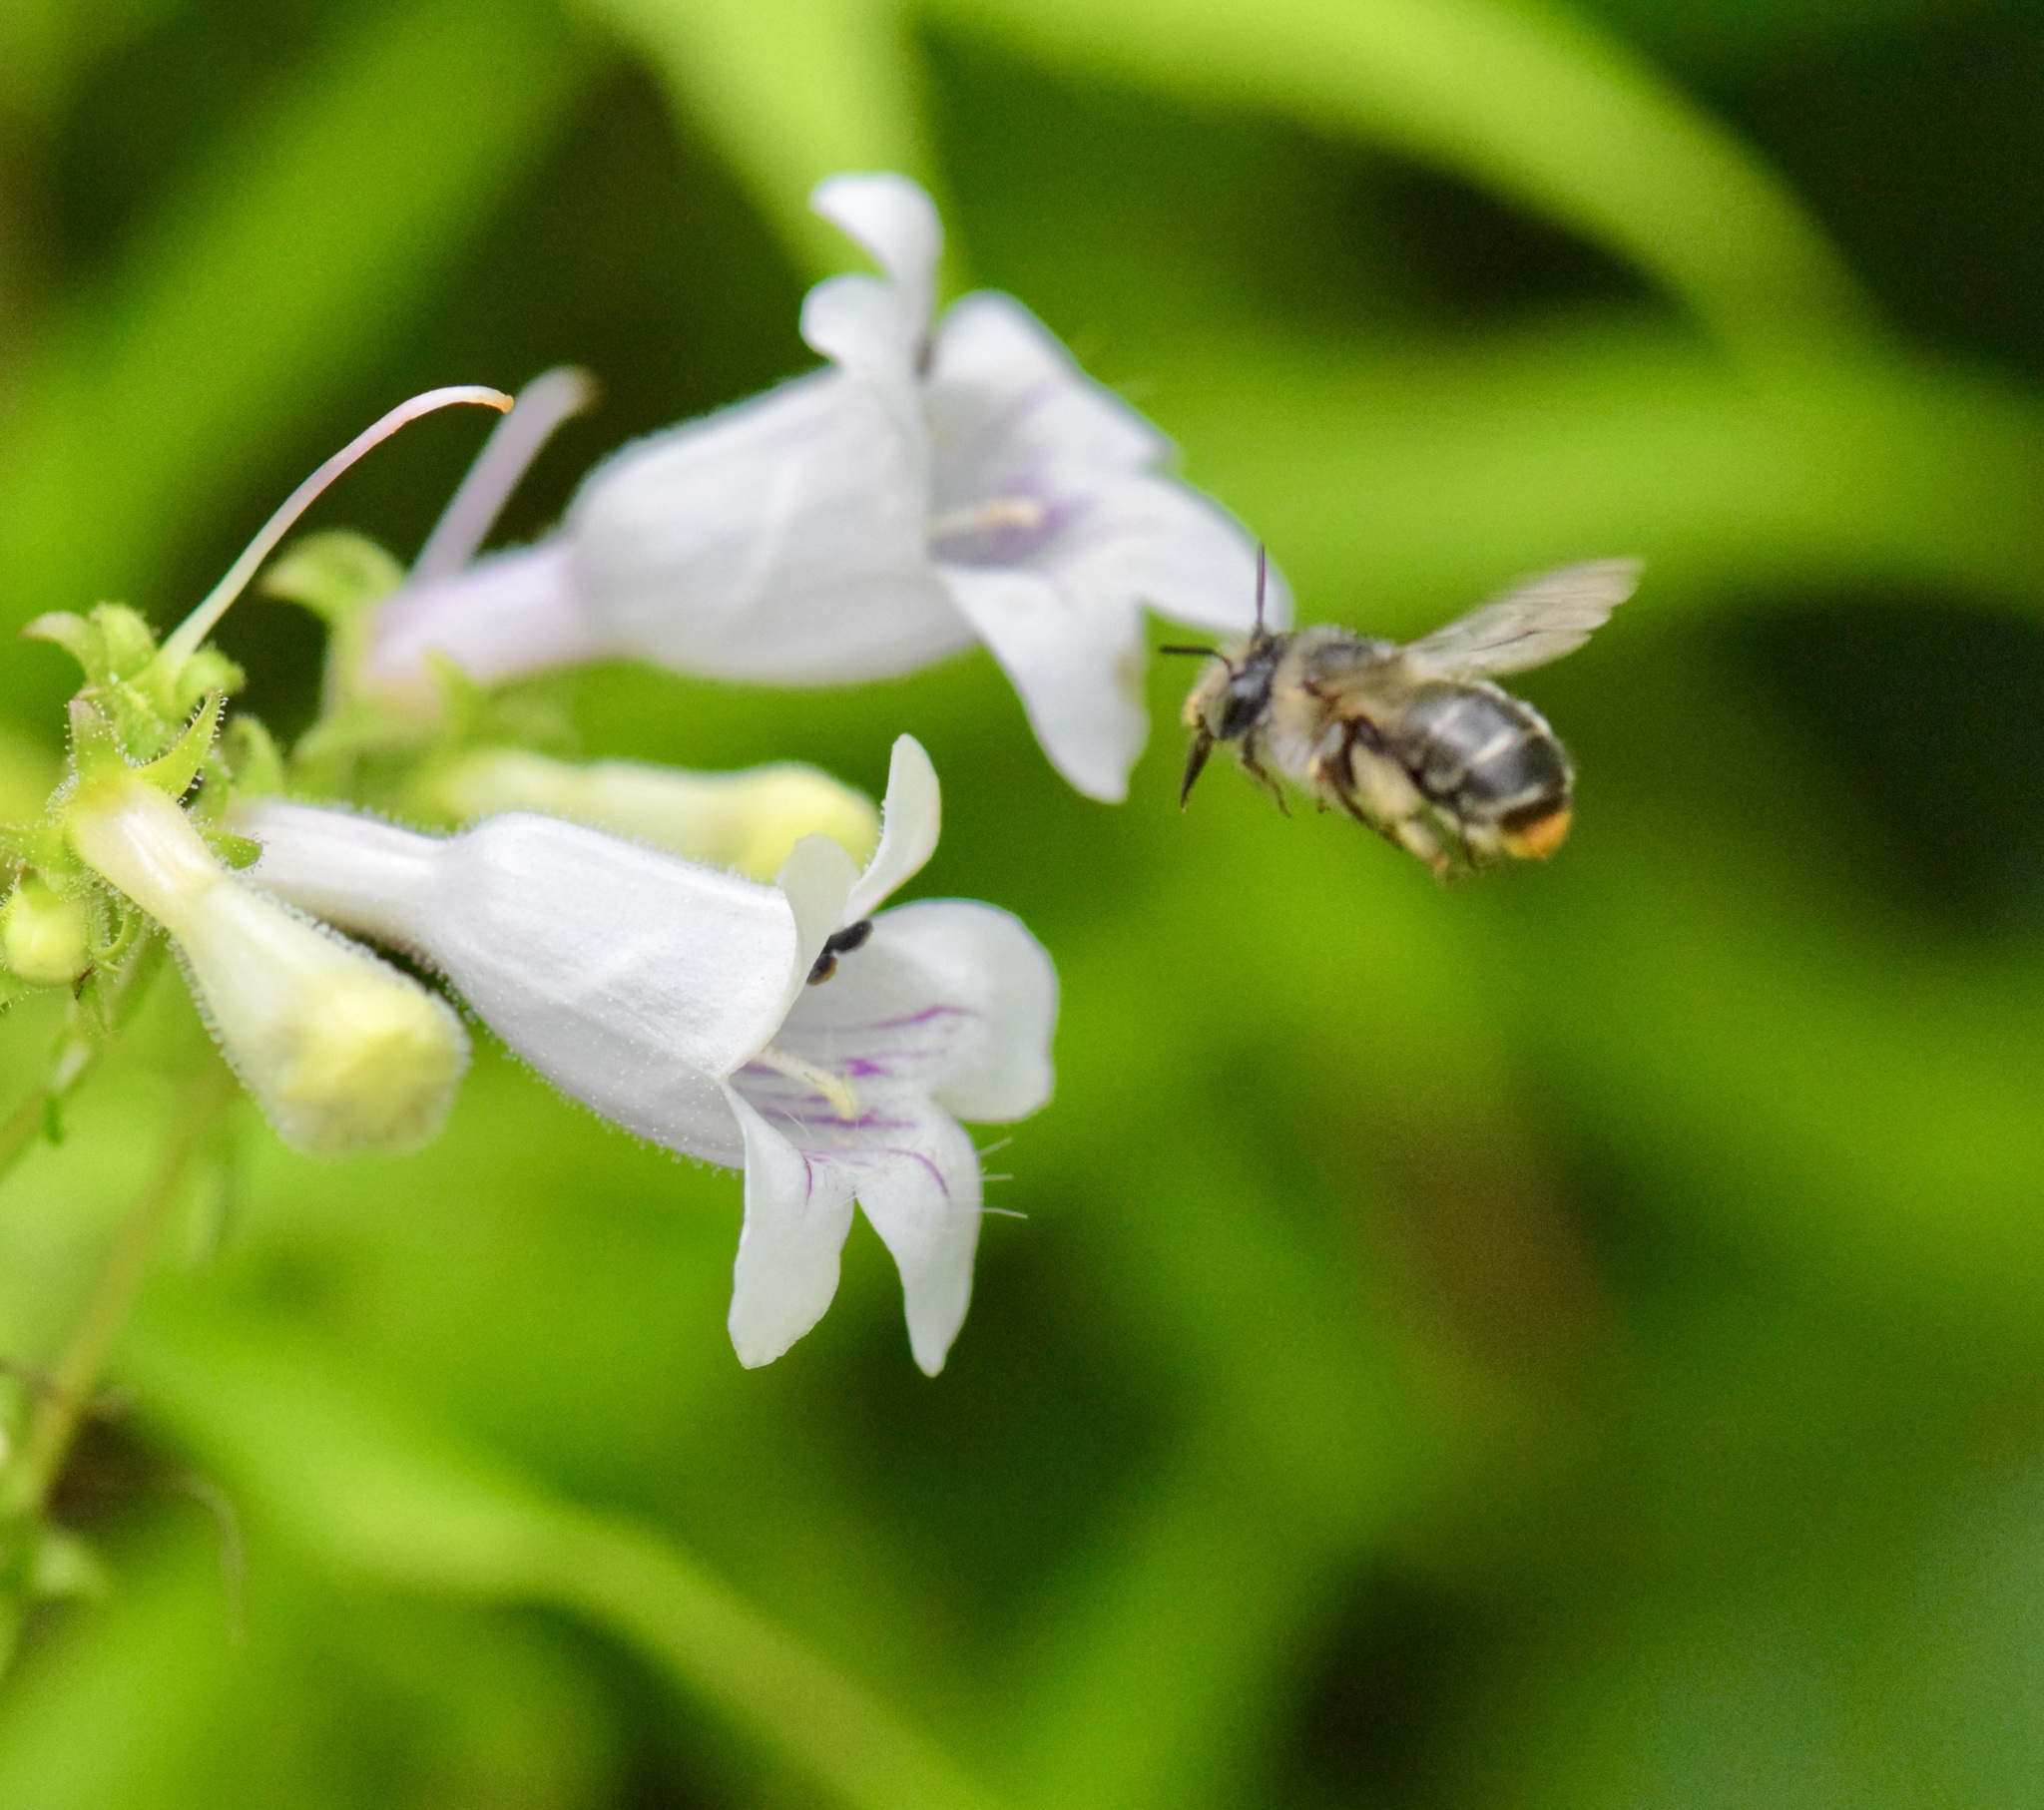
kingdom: Animalia
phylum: Arthropoda
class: Insecta
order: Hymenoptera
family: Apidae
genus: Anthophora
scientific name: Anthophora terminalis
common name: Orange-tipped wood-digger bee
